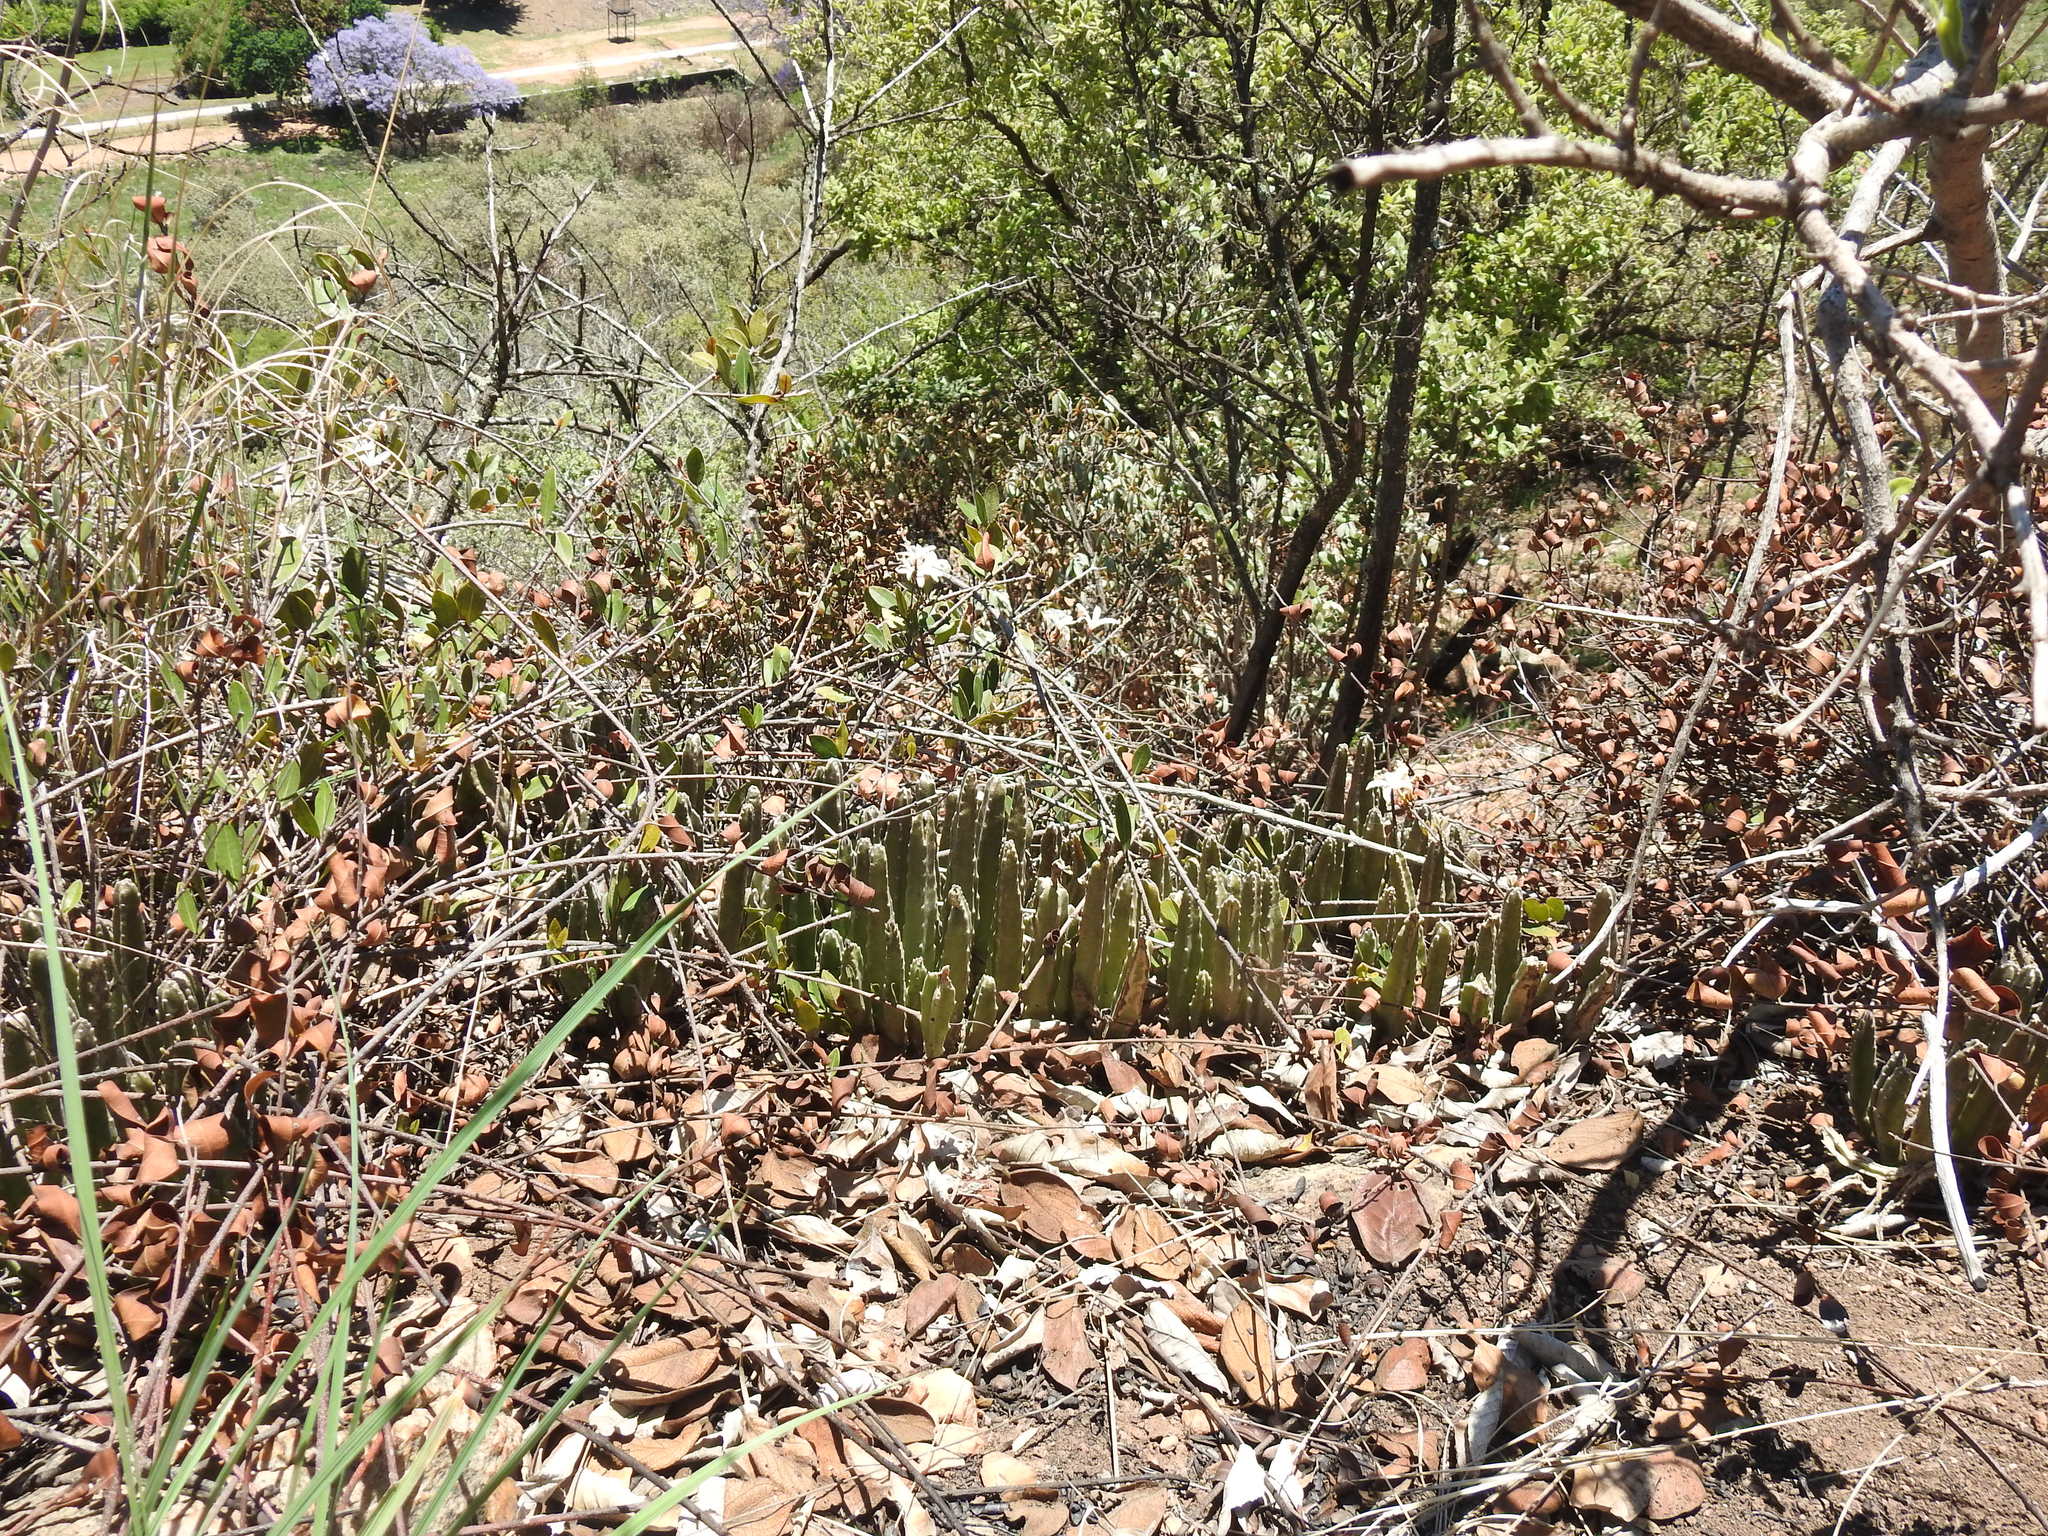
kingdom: Plantae
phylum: Tracheophyta
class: Magnoliopsida
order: Gentianales
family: Apocynaceae
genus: Ceropegia
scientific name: Ceropegia gigantea
